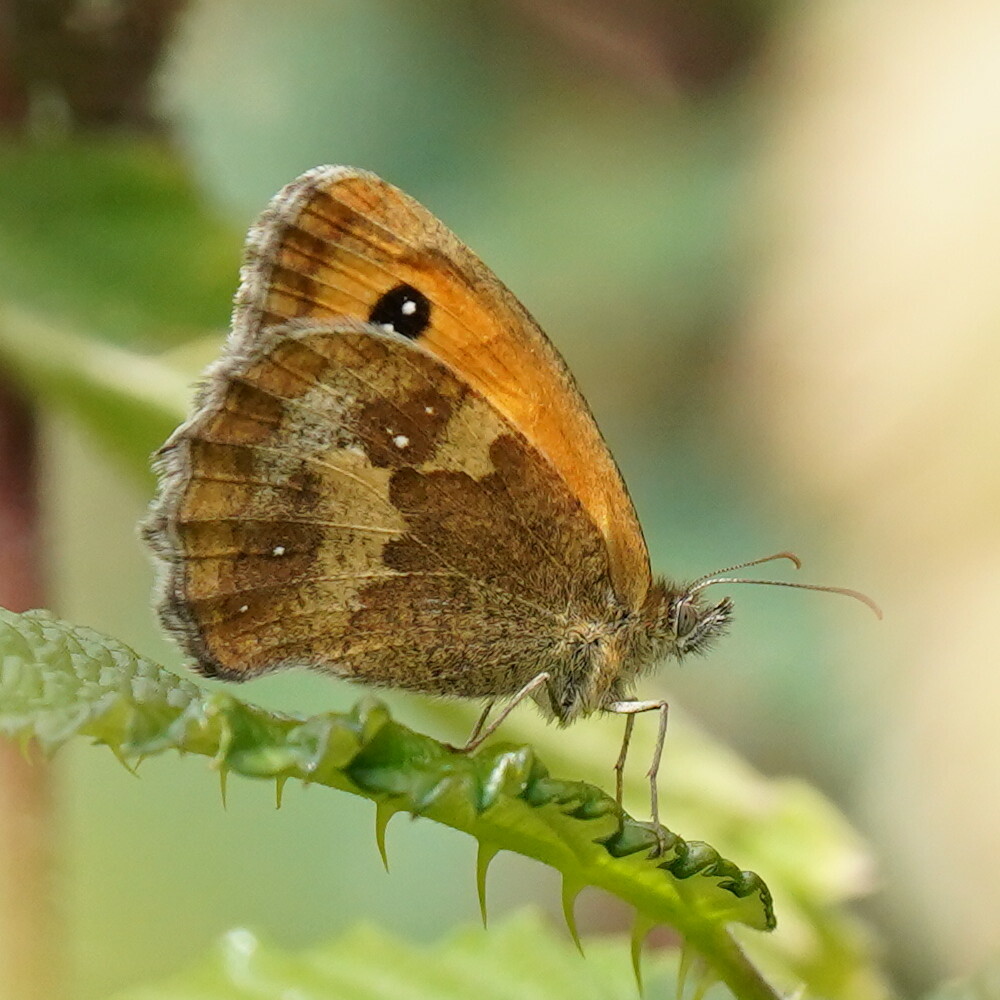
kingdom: Animalia
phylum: Arthropoda
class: Insecta
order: Lepidoptera
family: Nymphalidae
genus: Pyronia
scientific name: Pyronia tithonus
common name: Gatekeeper
